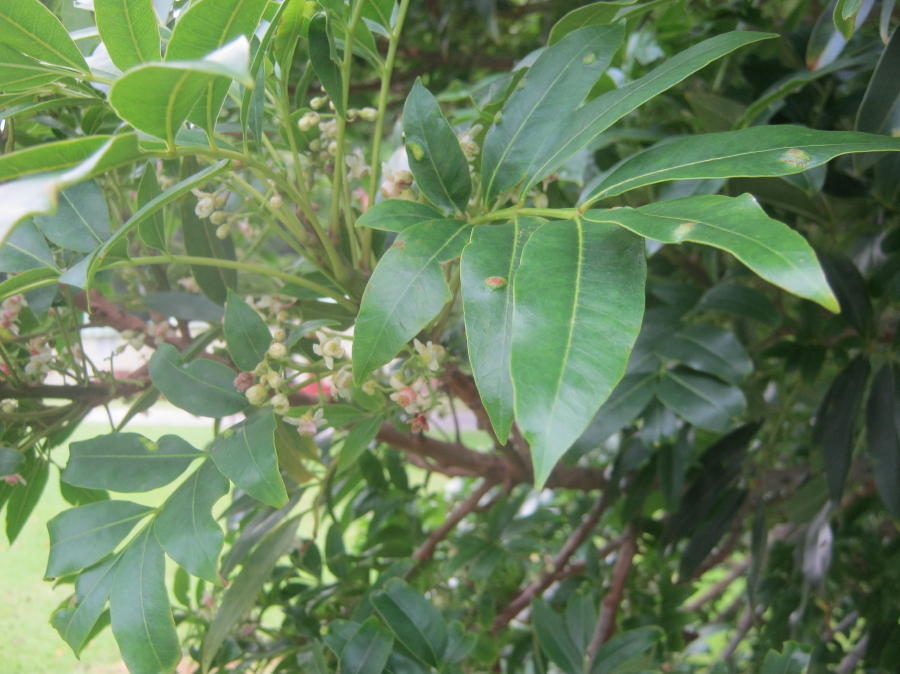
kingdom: Plantae
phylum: Tracheophyta
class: Magnoliopsida
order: Sapindales
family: Meliaceae
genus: Ekebergia
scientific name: Ekebergia capensis
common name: Cape-ash
